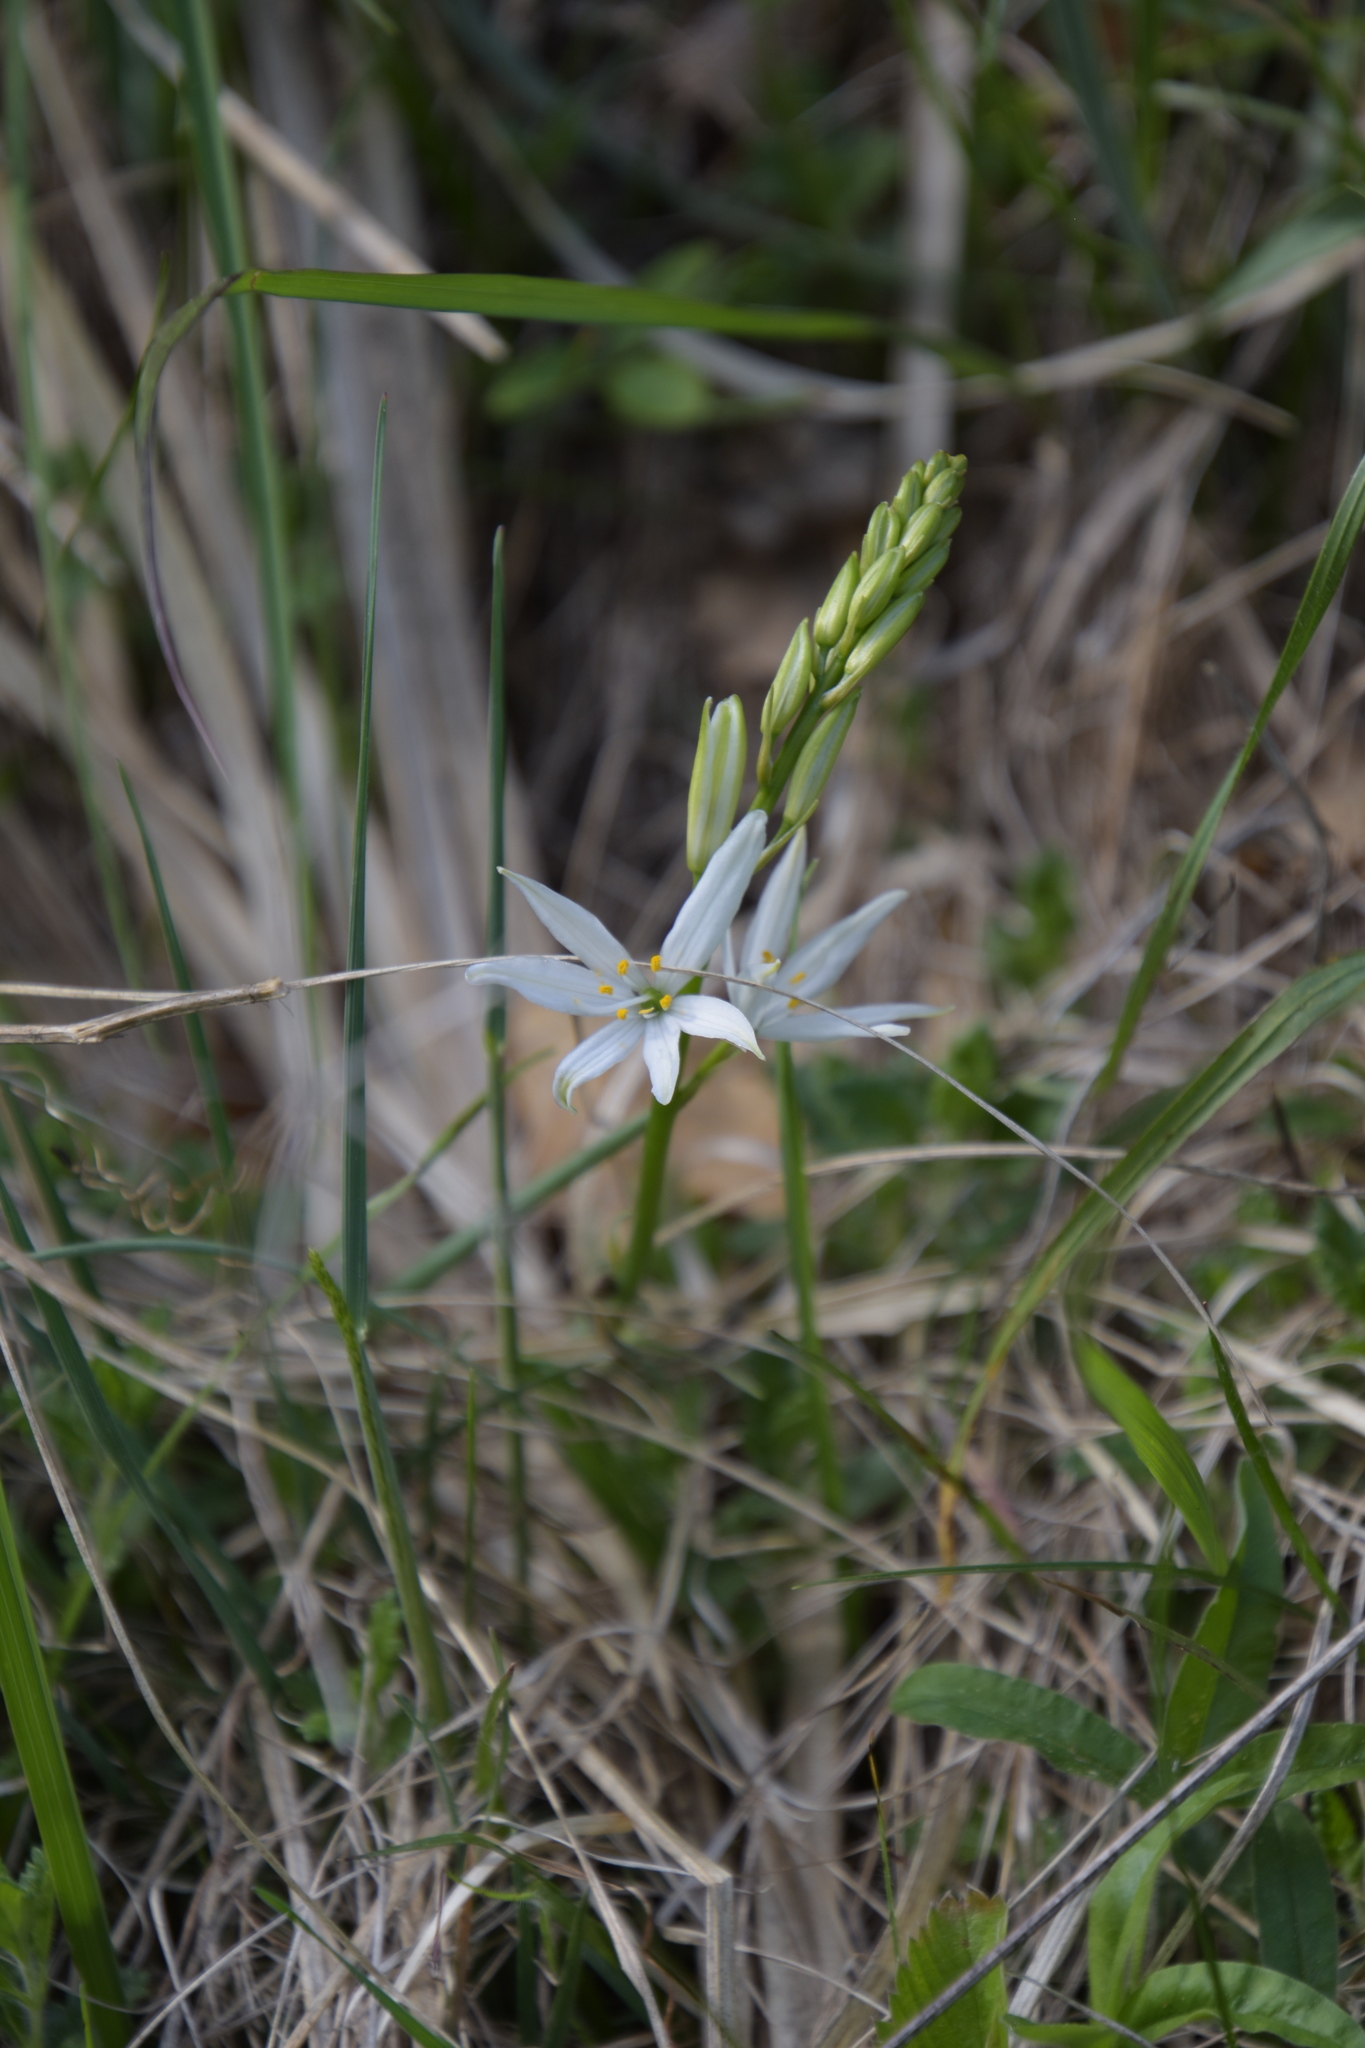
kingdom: Plantae
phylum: Tracheophyta
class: Liliopsida
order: Asparagales
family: Asparagaceae
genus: Anthericum
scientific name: Anthericum liliago
